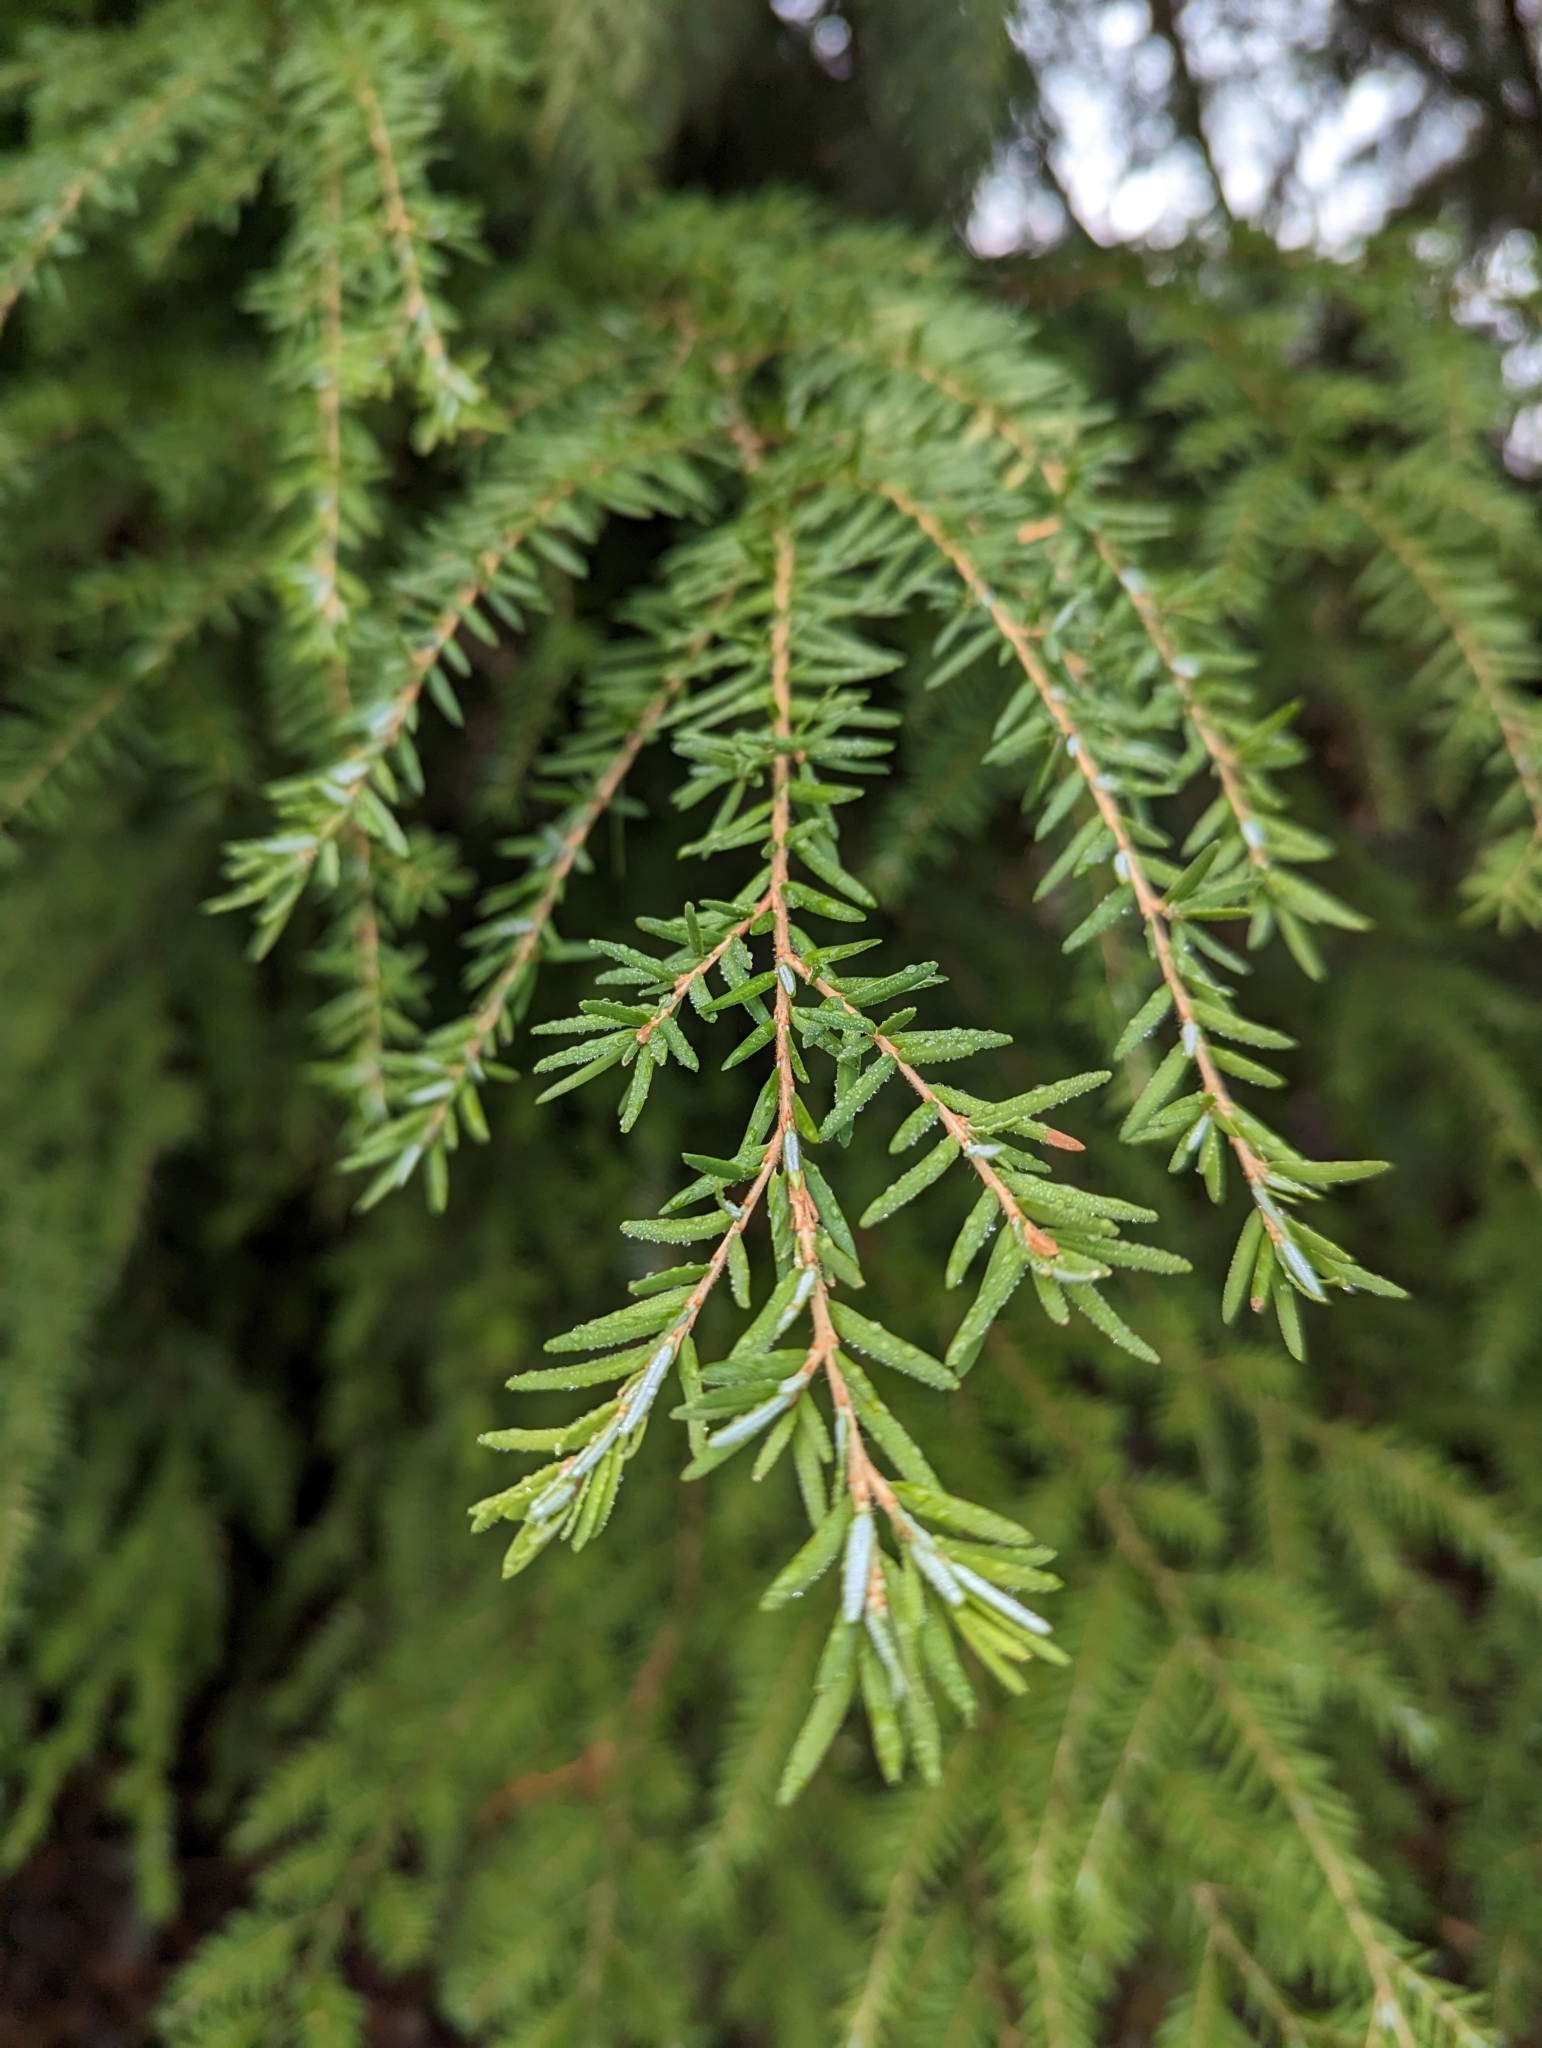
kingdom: Plantae
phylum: Tracheophyta
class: Pinopsida
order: Pinales
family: Pinaceae
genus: Tsuga
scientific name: Tsuga heterophylla
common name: Western hemlock
